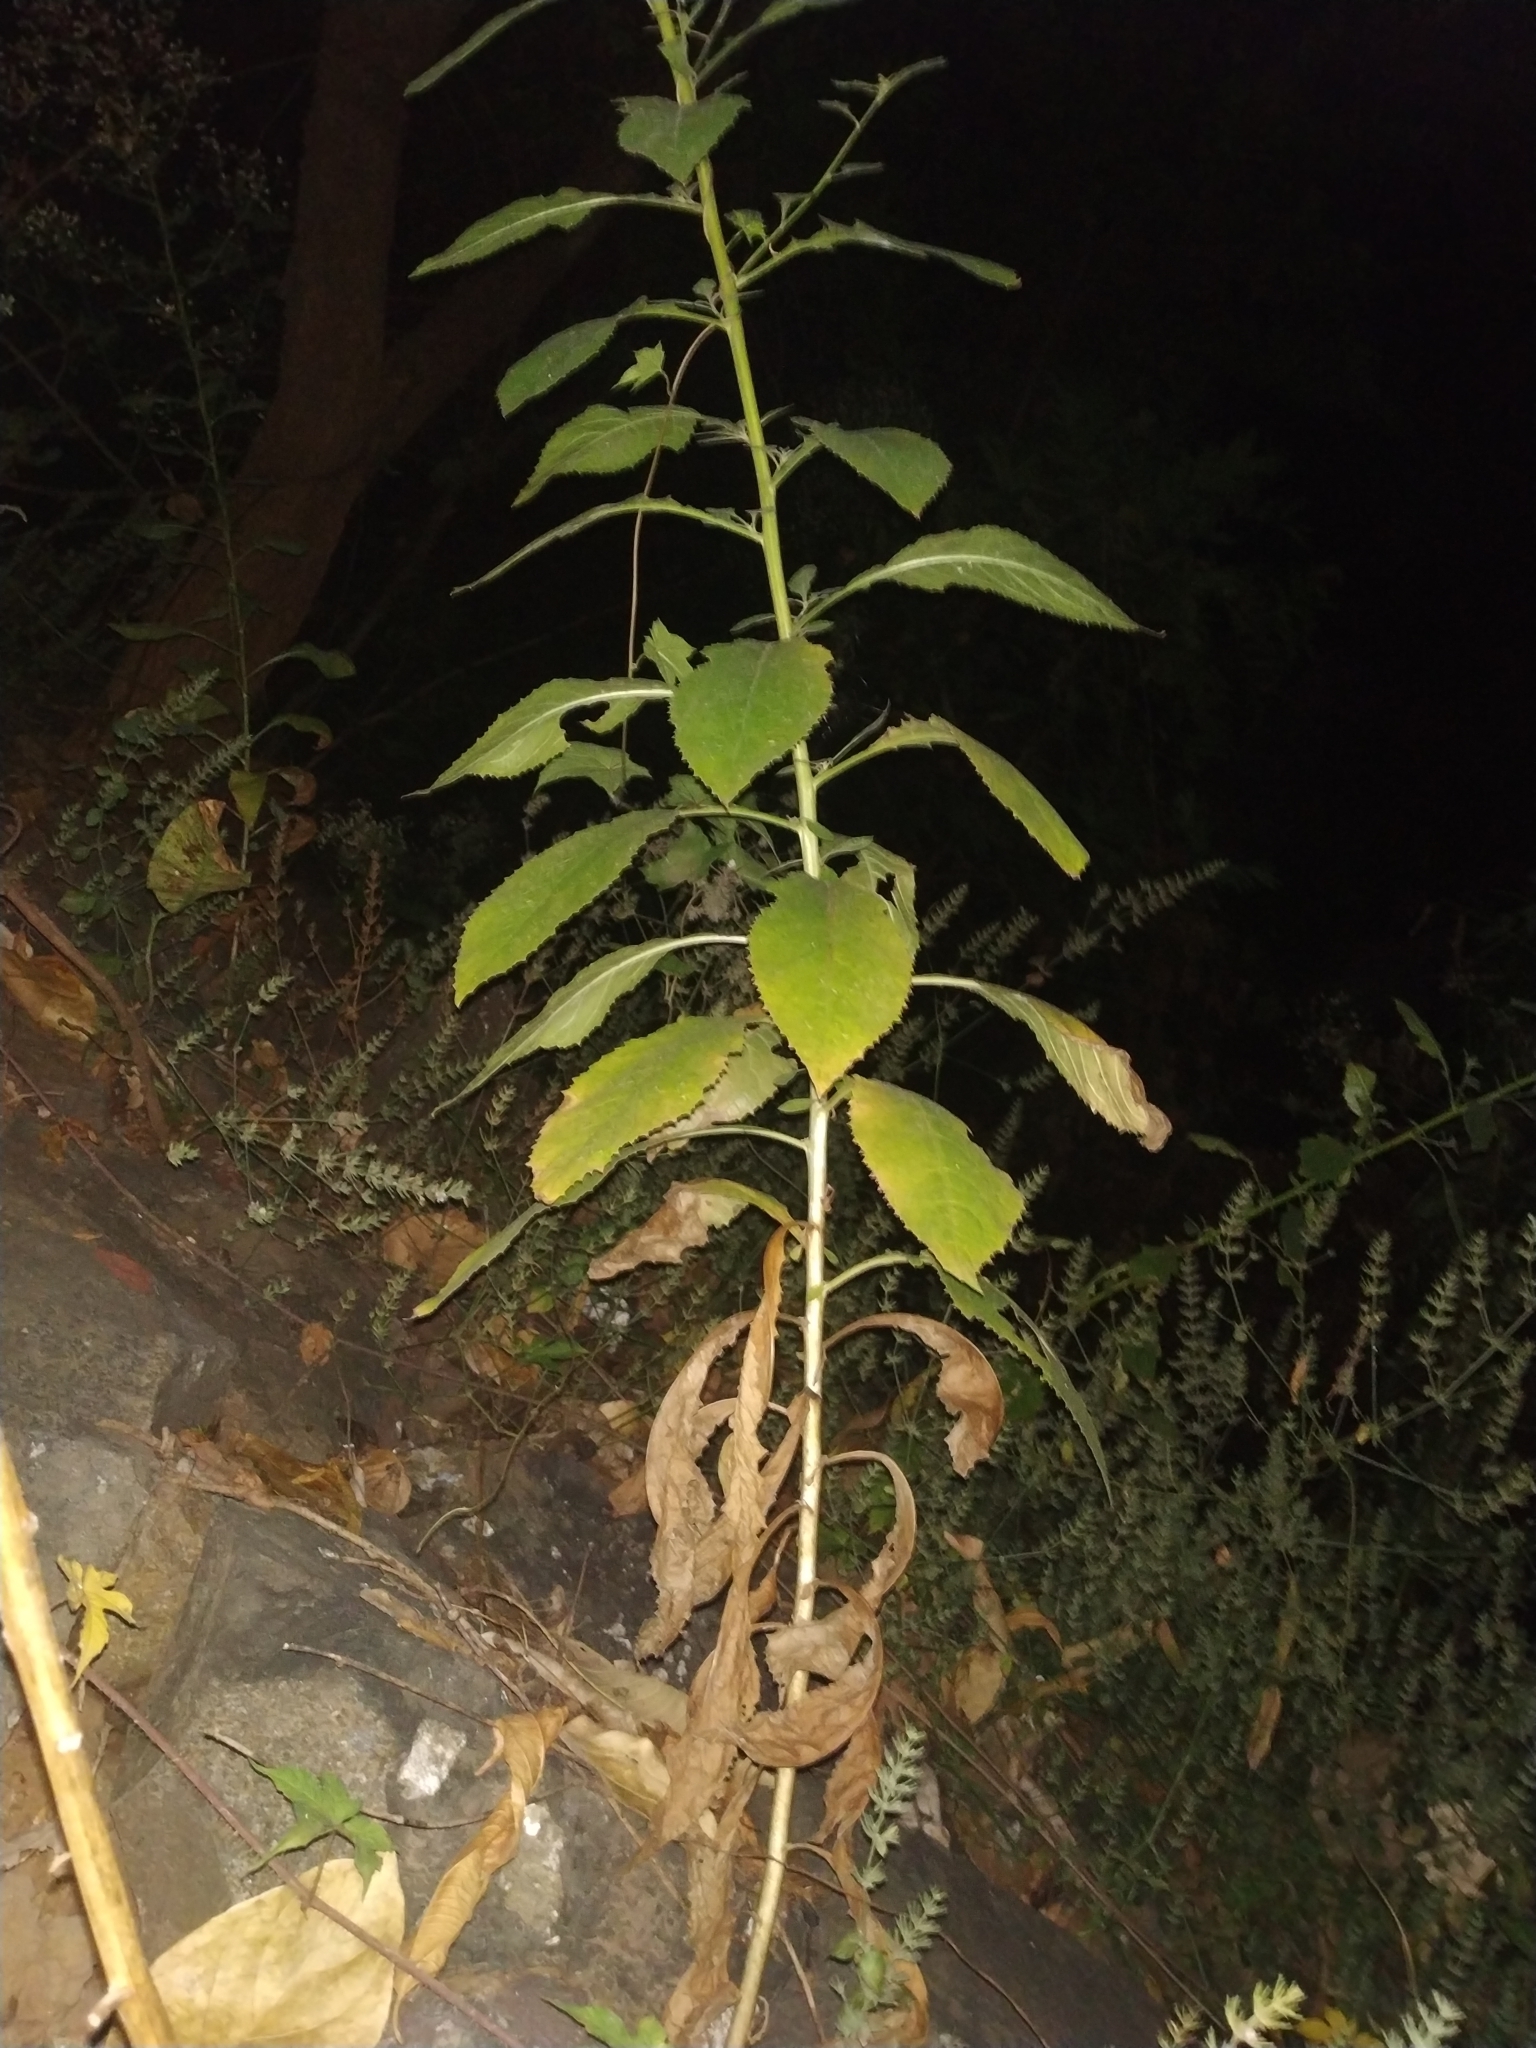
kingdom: Plantae
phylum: Tracheophyta
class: Magnoliopsida
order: Asterales
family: Asteraceae
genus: Pluchea
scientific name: Pluchea paniculata
